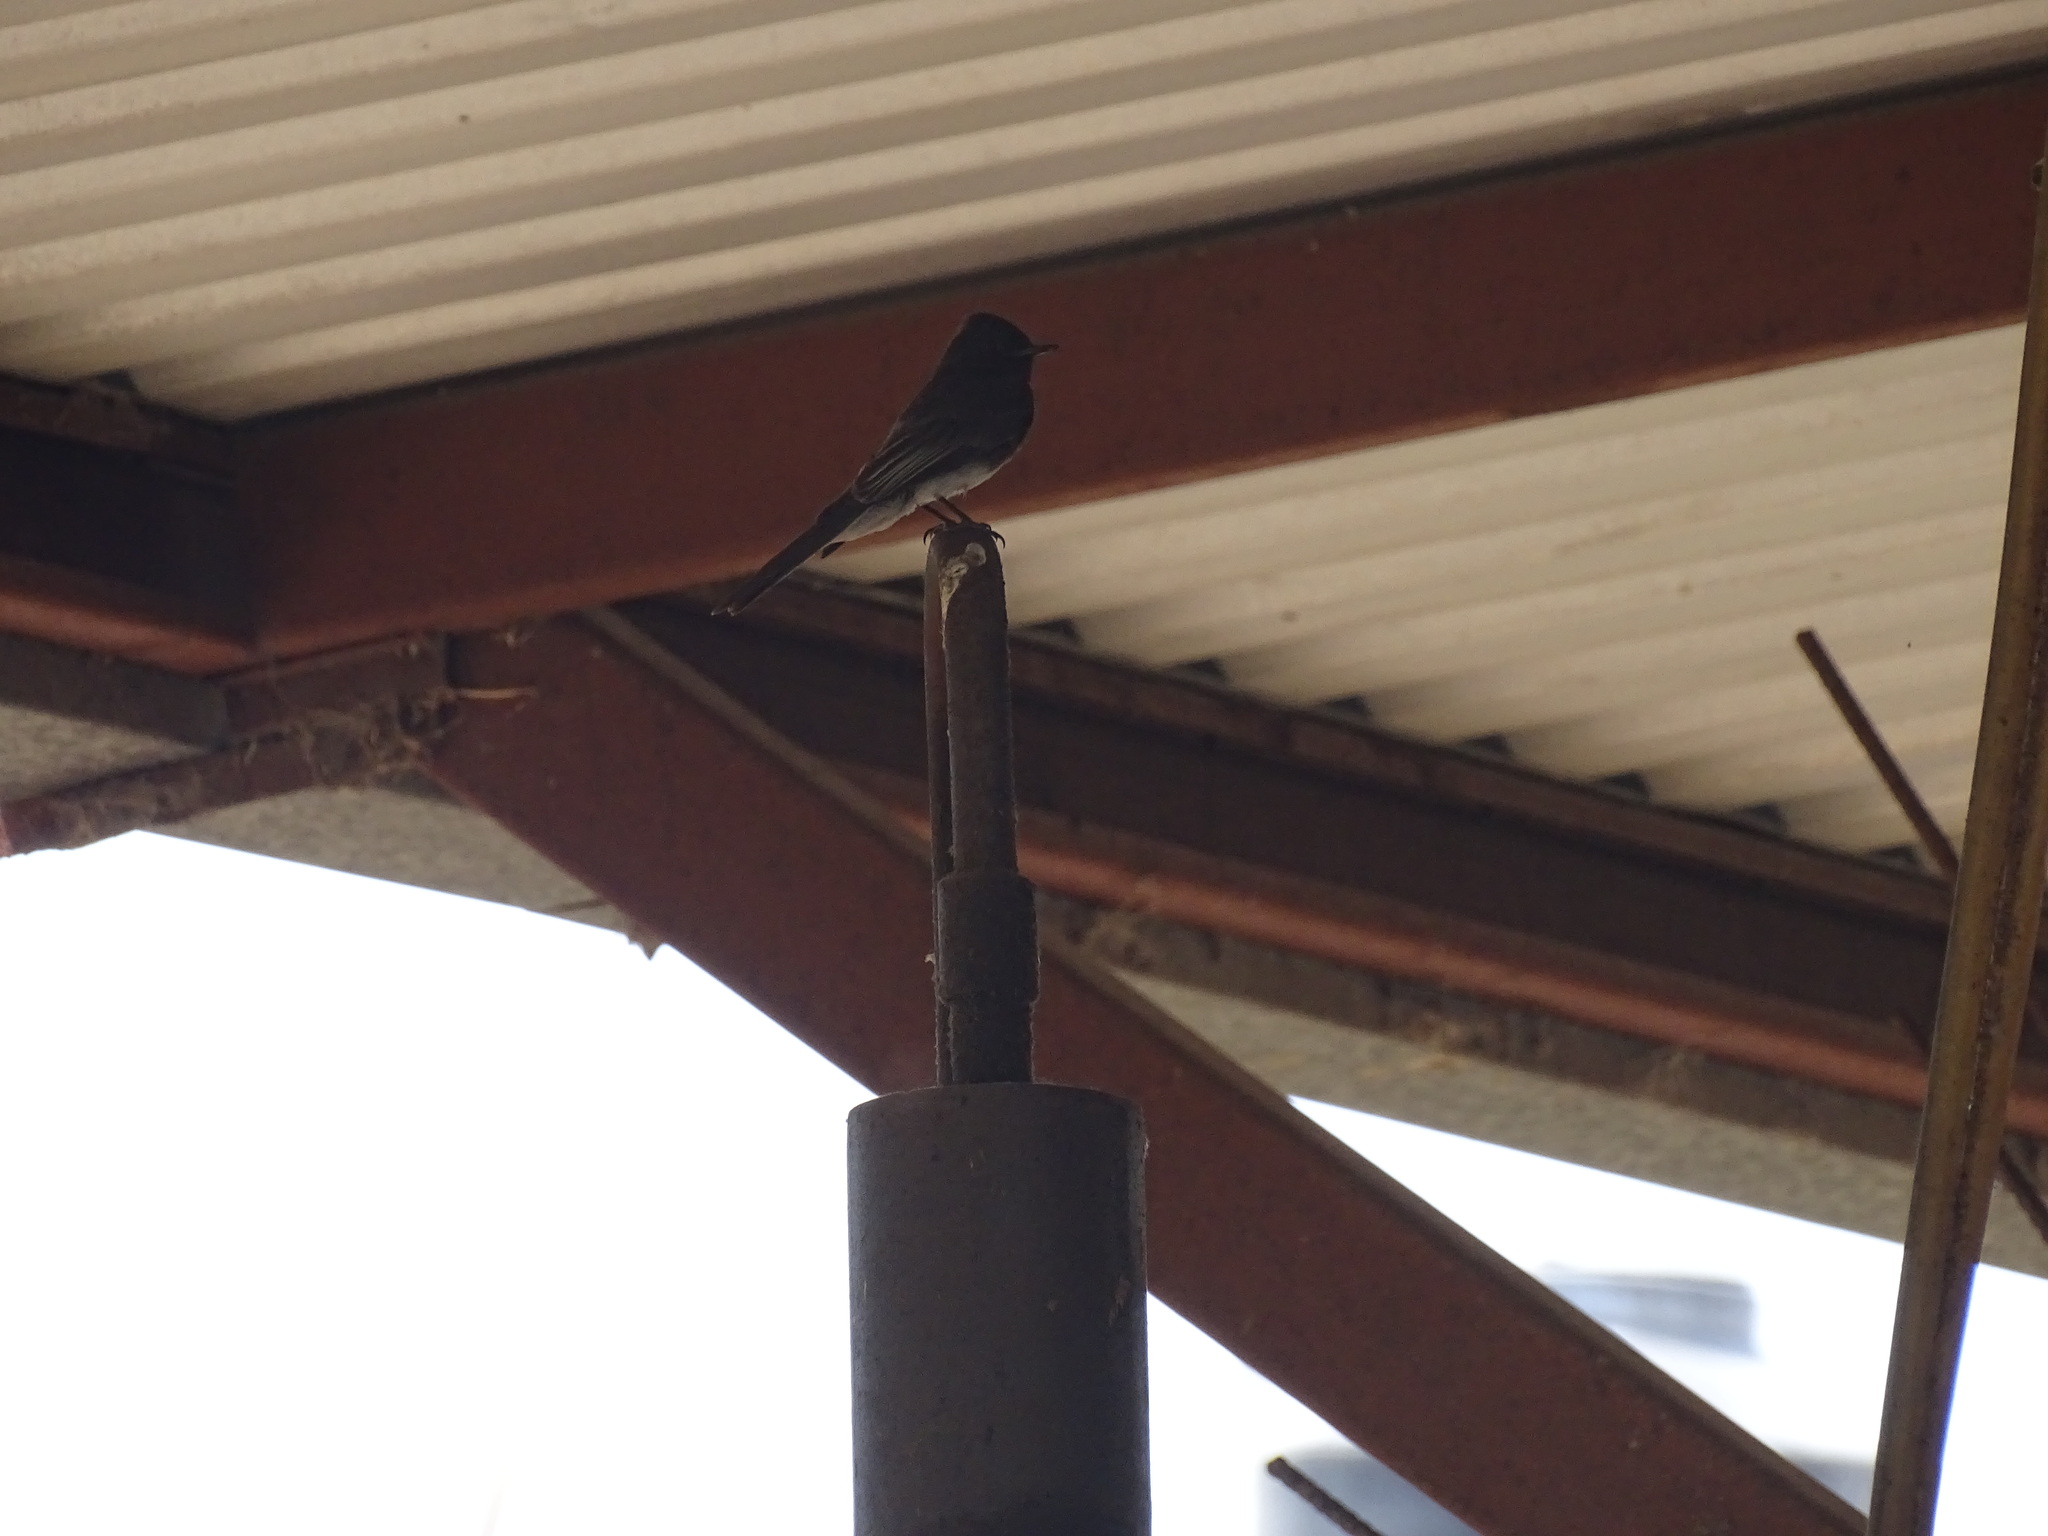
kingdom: Animalia
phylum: Chordata
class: Aves
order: Passeriformes
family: Tyrannidae
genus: Sayornis
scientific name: Sayornis nigricans
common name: Black phoebe
